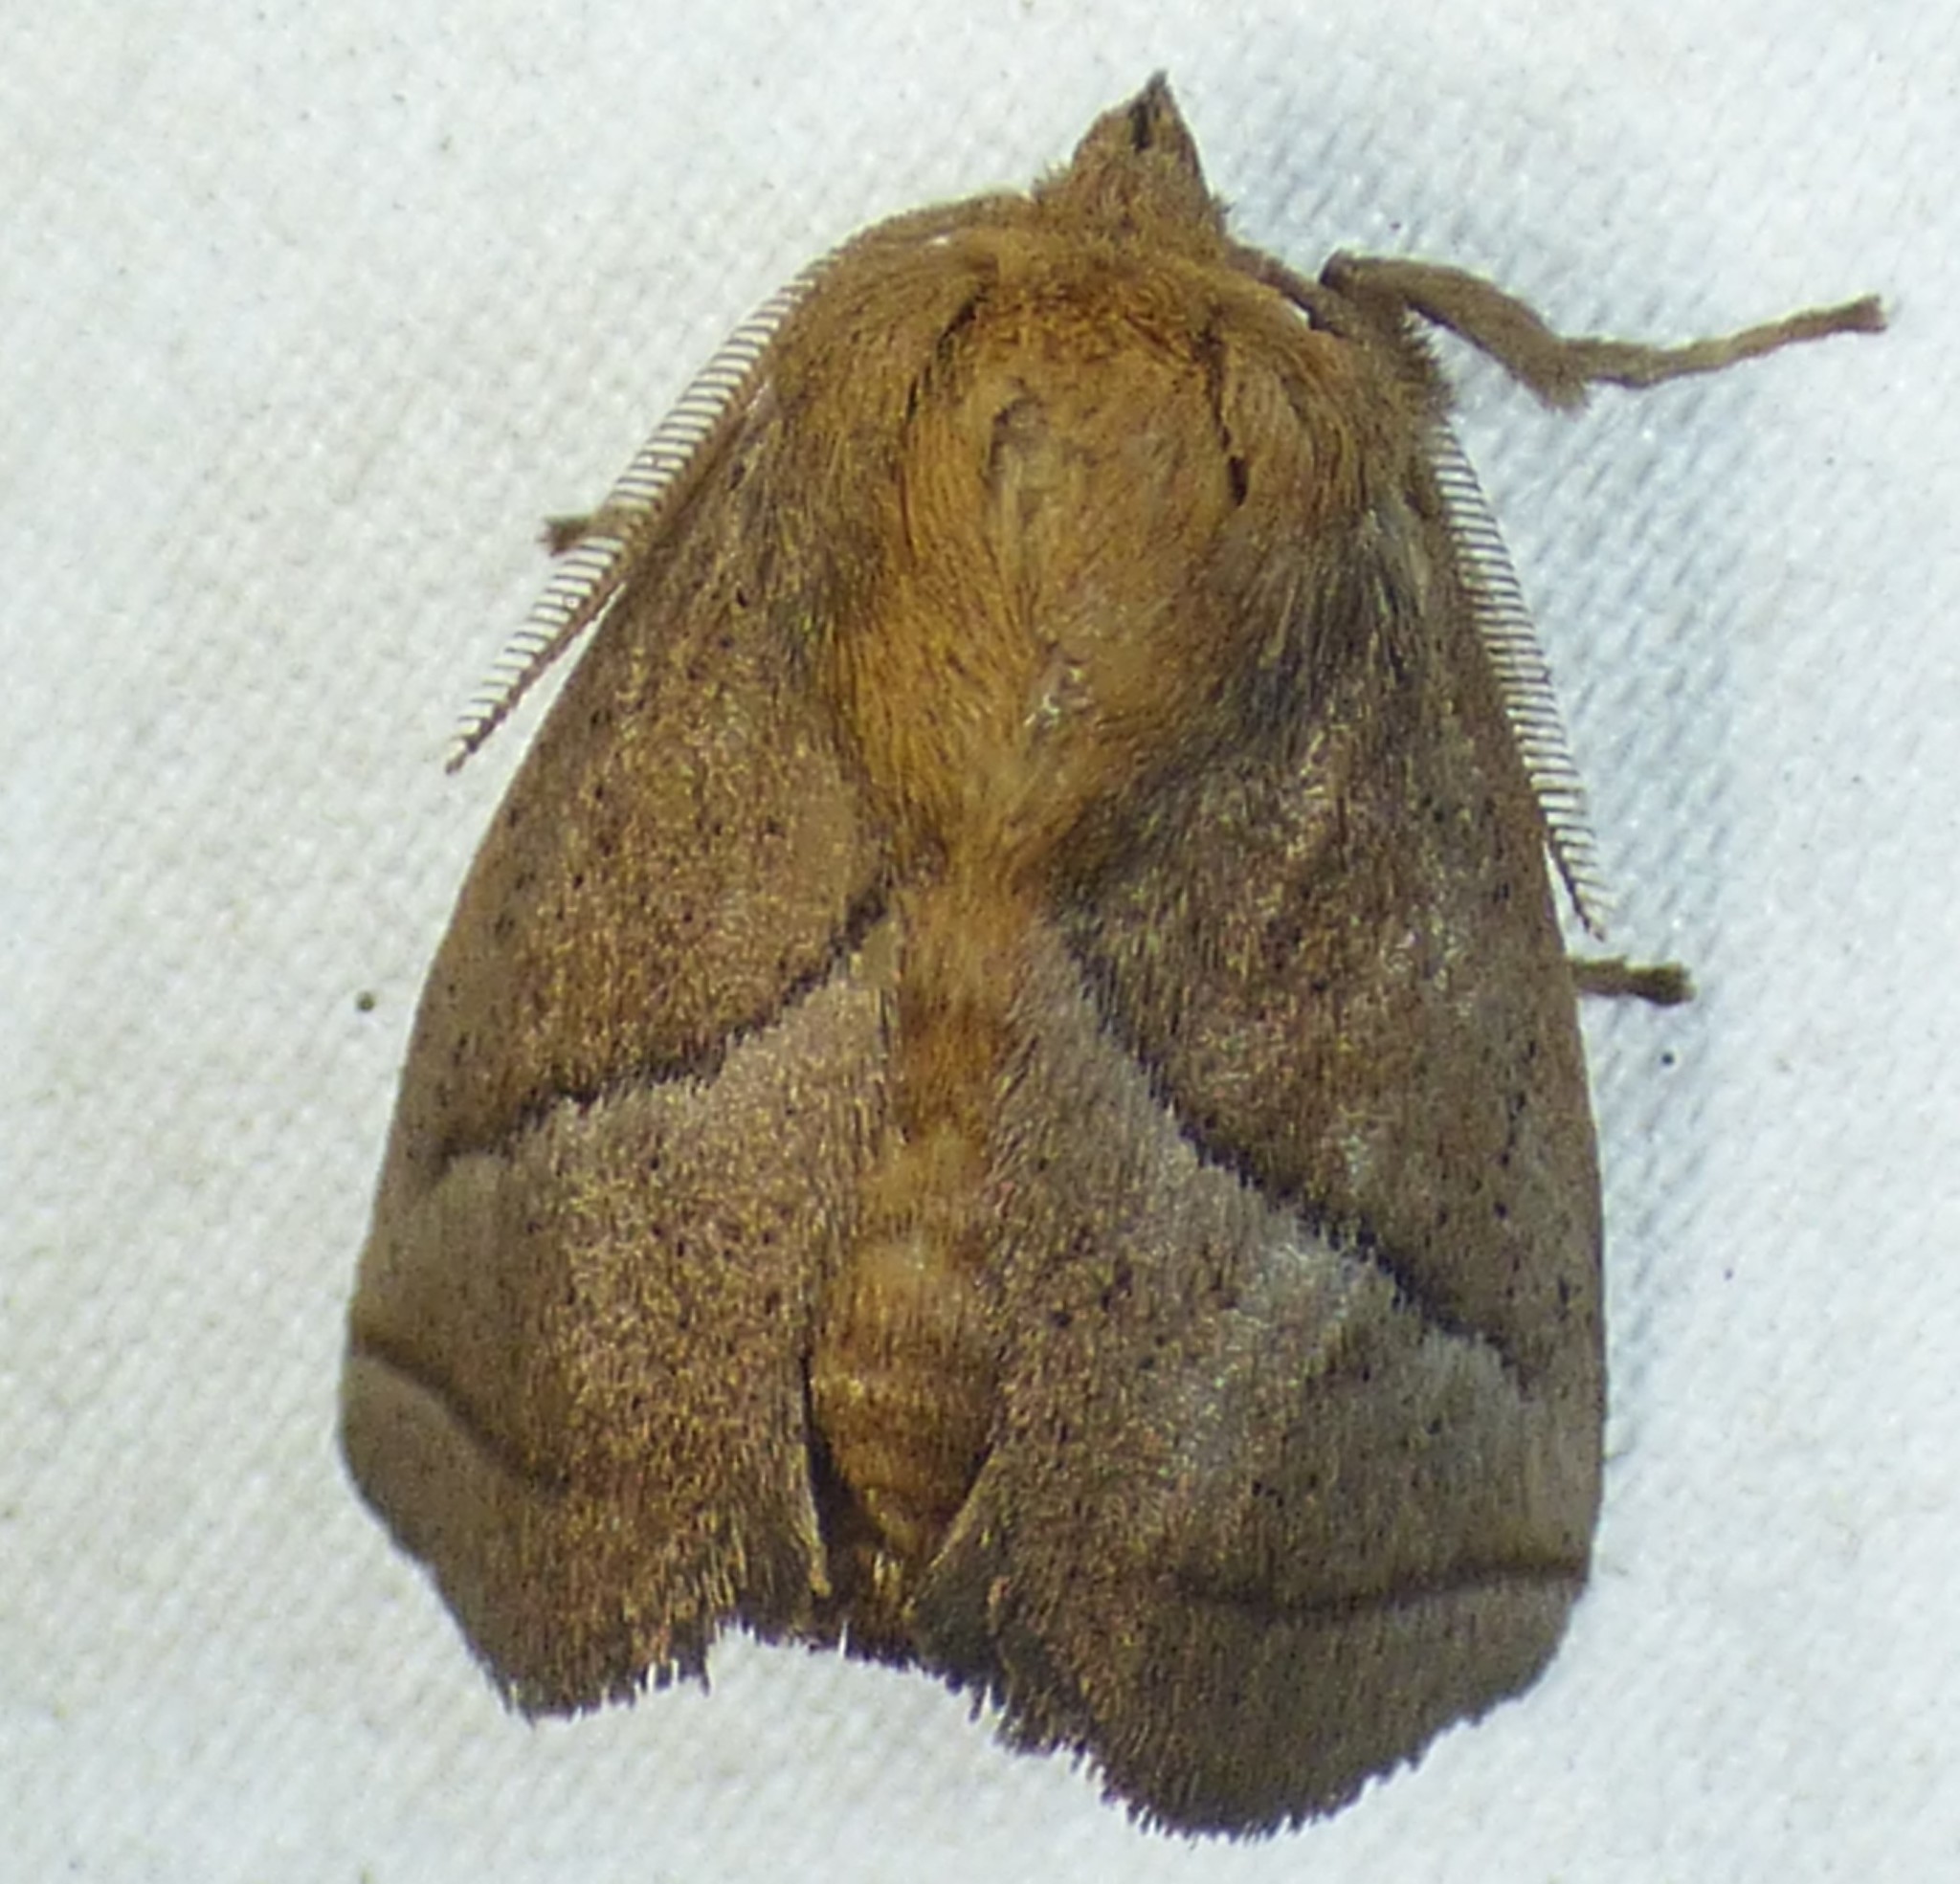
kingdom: Animalia
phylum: Arthropoda
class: Insecta
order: Lepidoptera
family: Limacodidae
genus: Natada
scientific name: Natada nasoni
